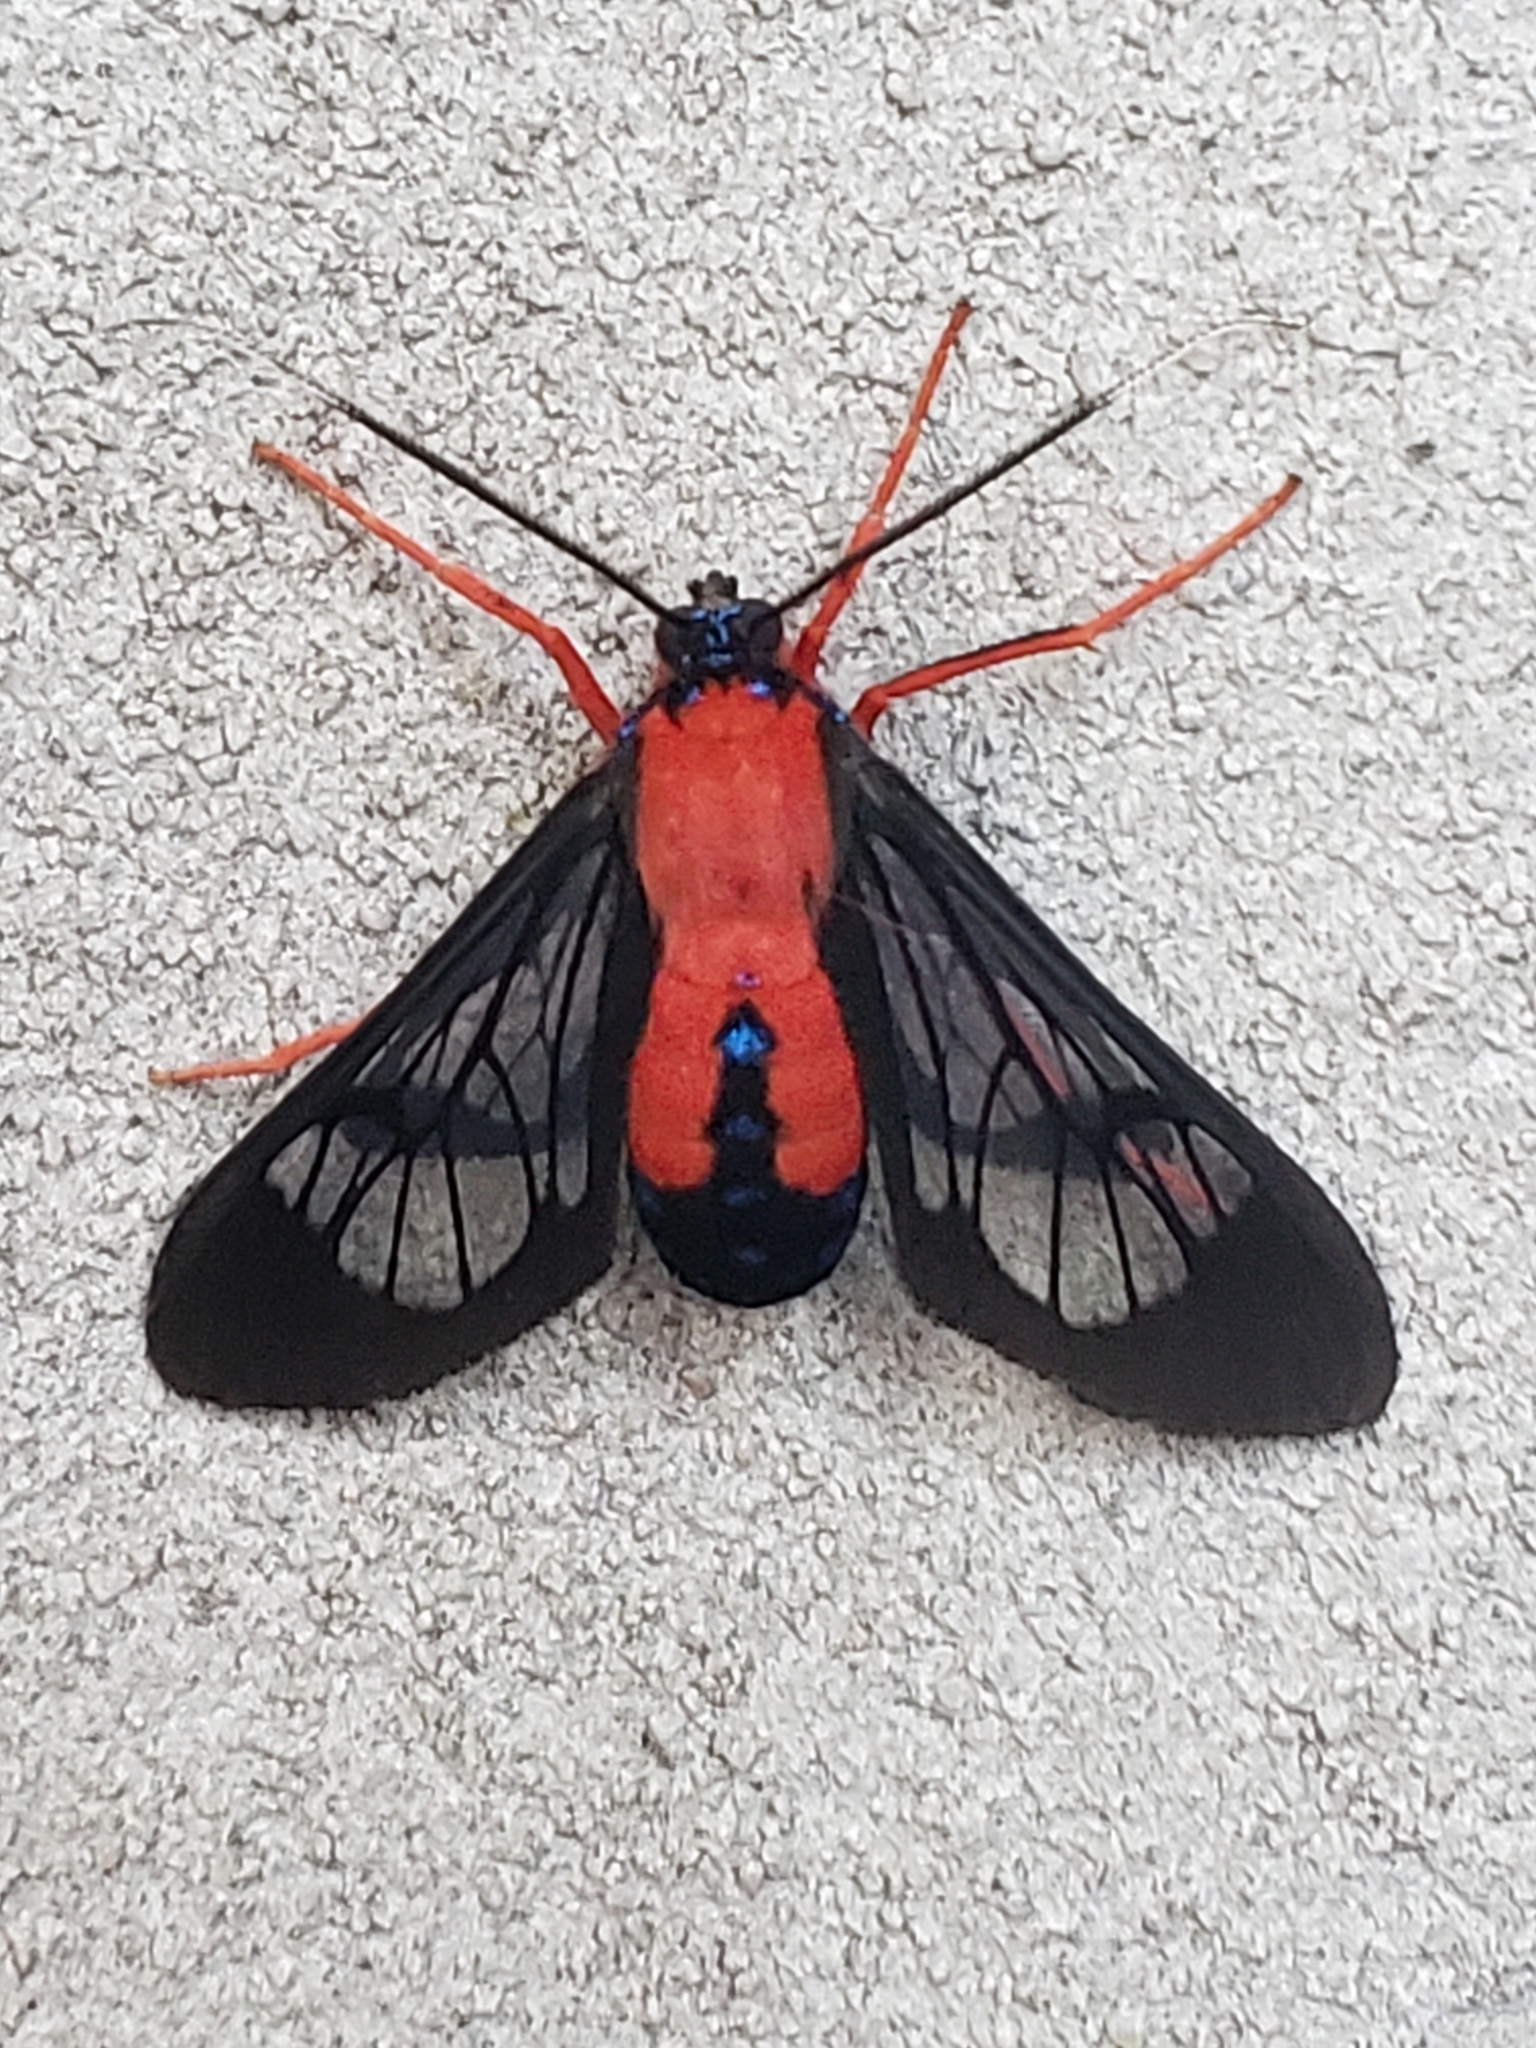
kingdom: Animalia
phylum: Arthropoda
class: Insecta
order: Lepidoptera
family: Erebidae
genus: Cosmosoma
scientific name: Cosmosoma myrodora
